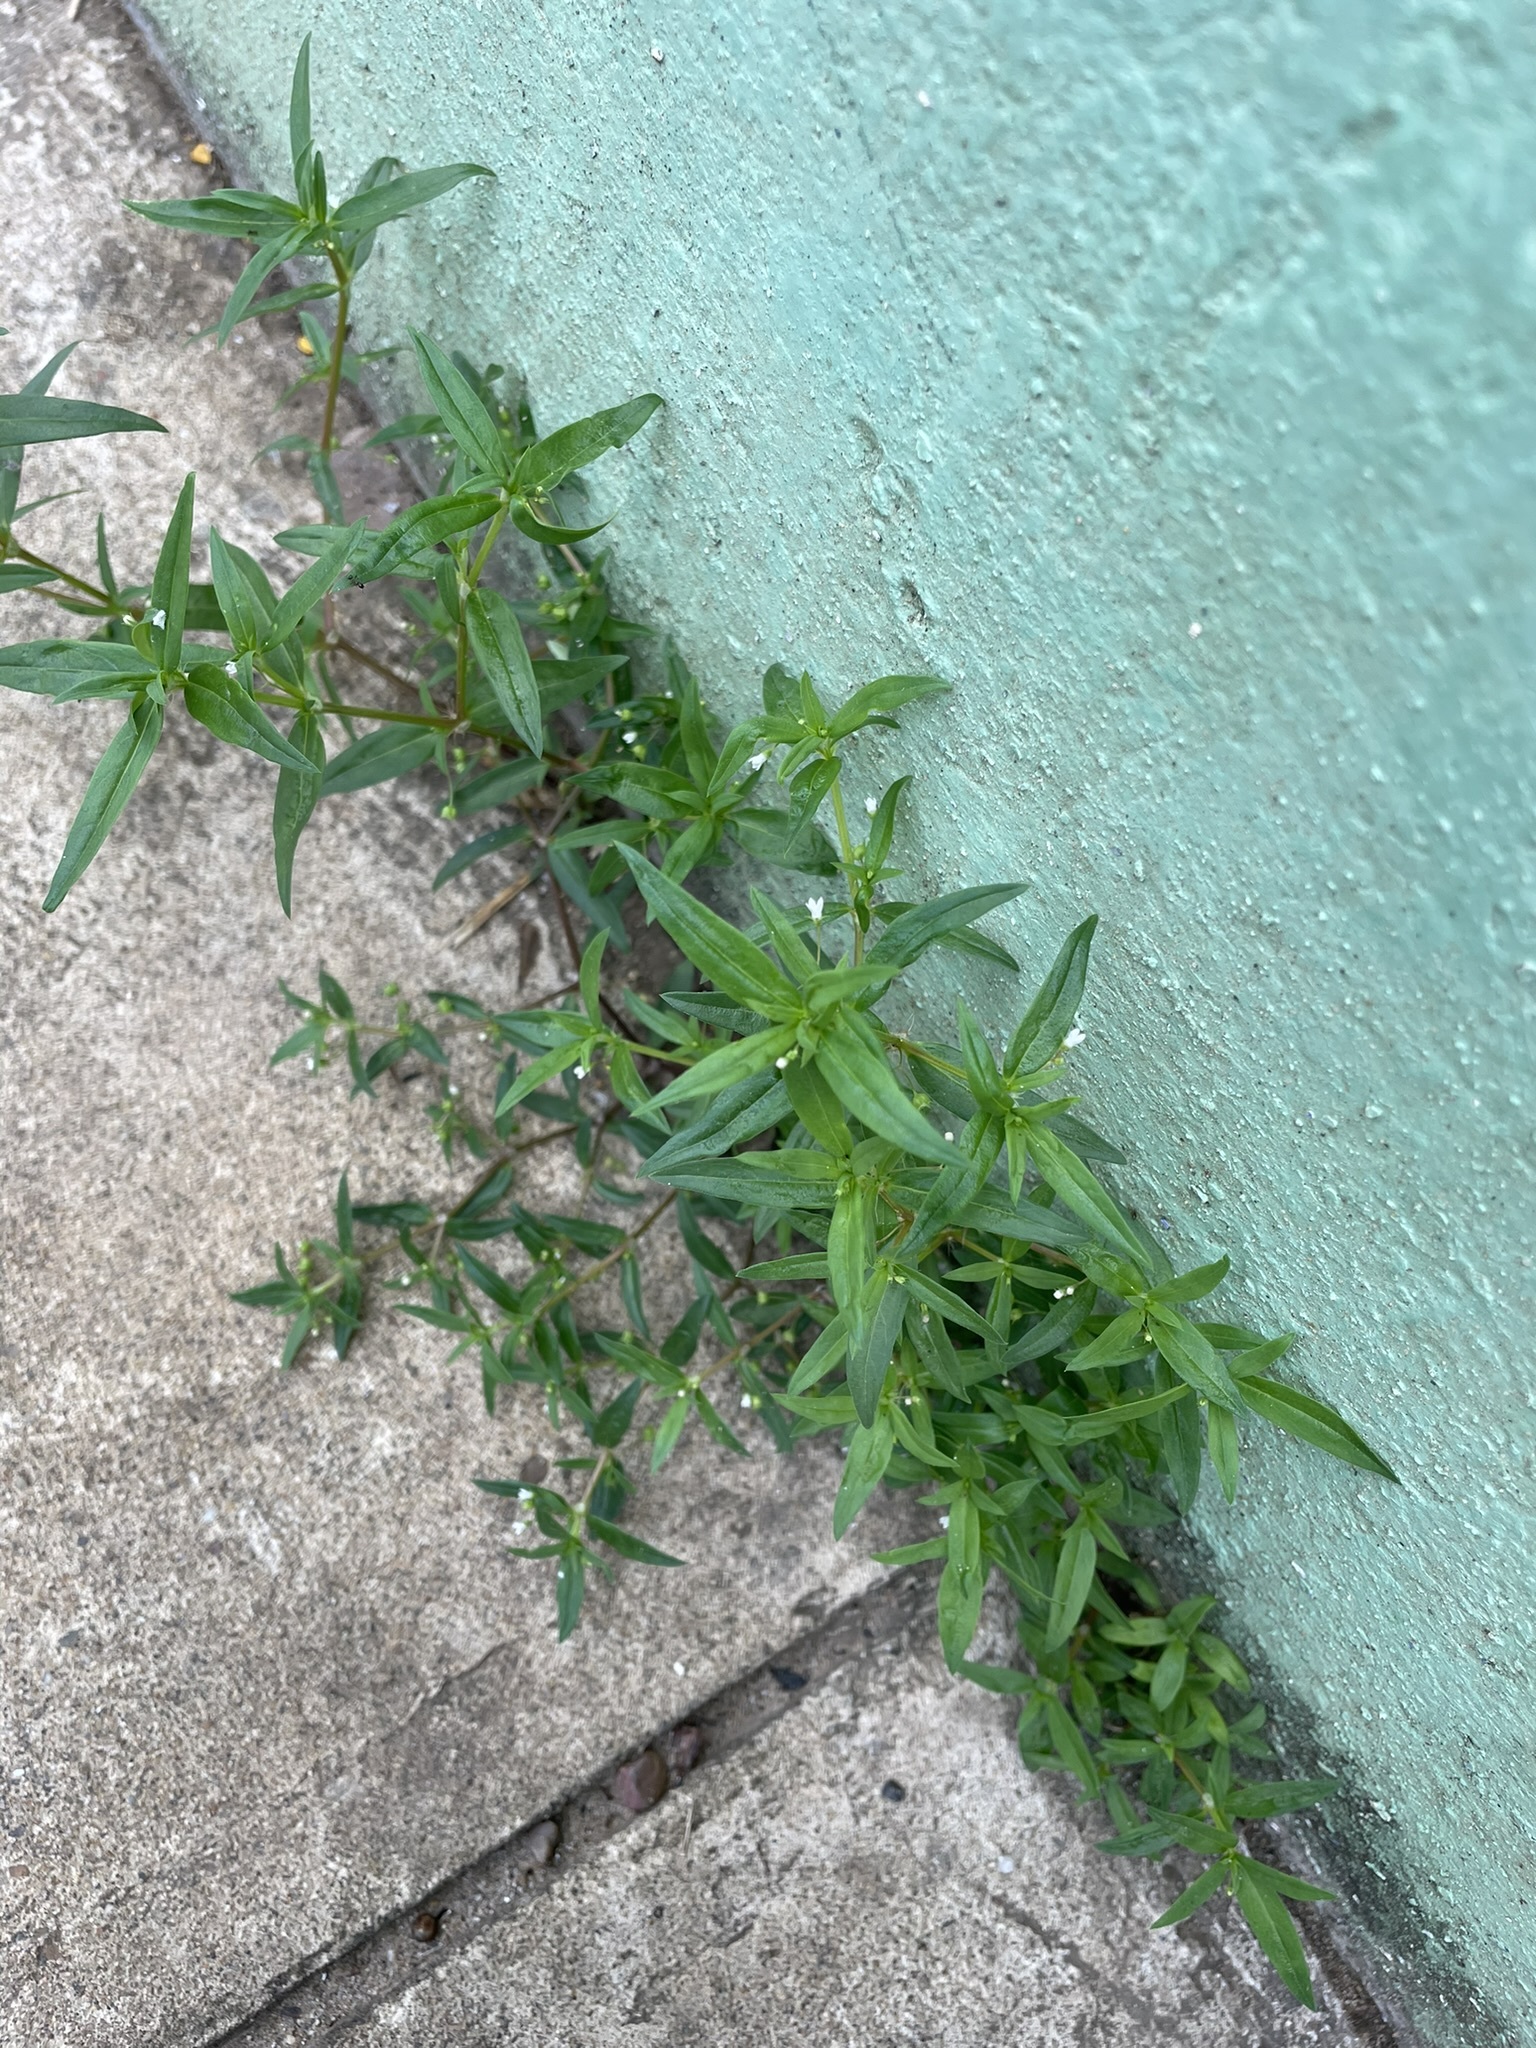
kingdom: Plantae
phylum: Tracheophyta
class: Magnoliopsida
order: Gentianales
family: Rubiaceae
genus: Oldenlandia
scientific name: Oldenlandia corymbosa
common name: Flat-top mille graines
